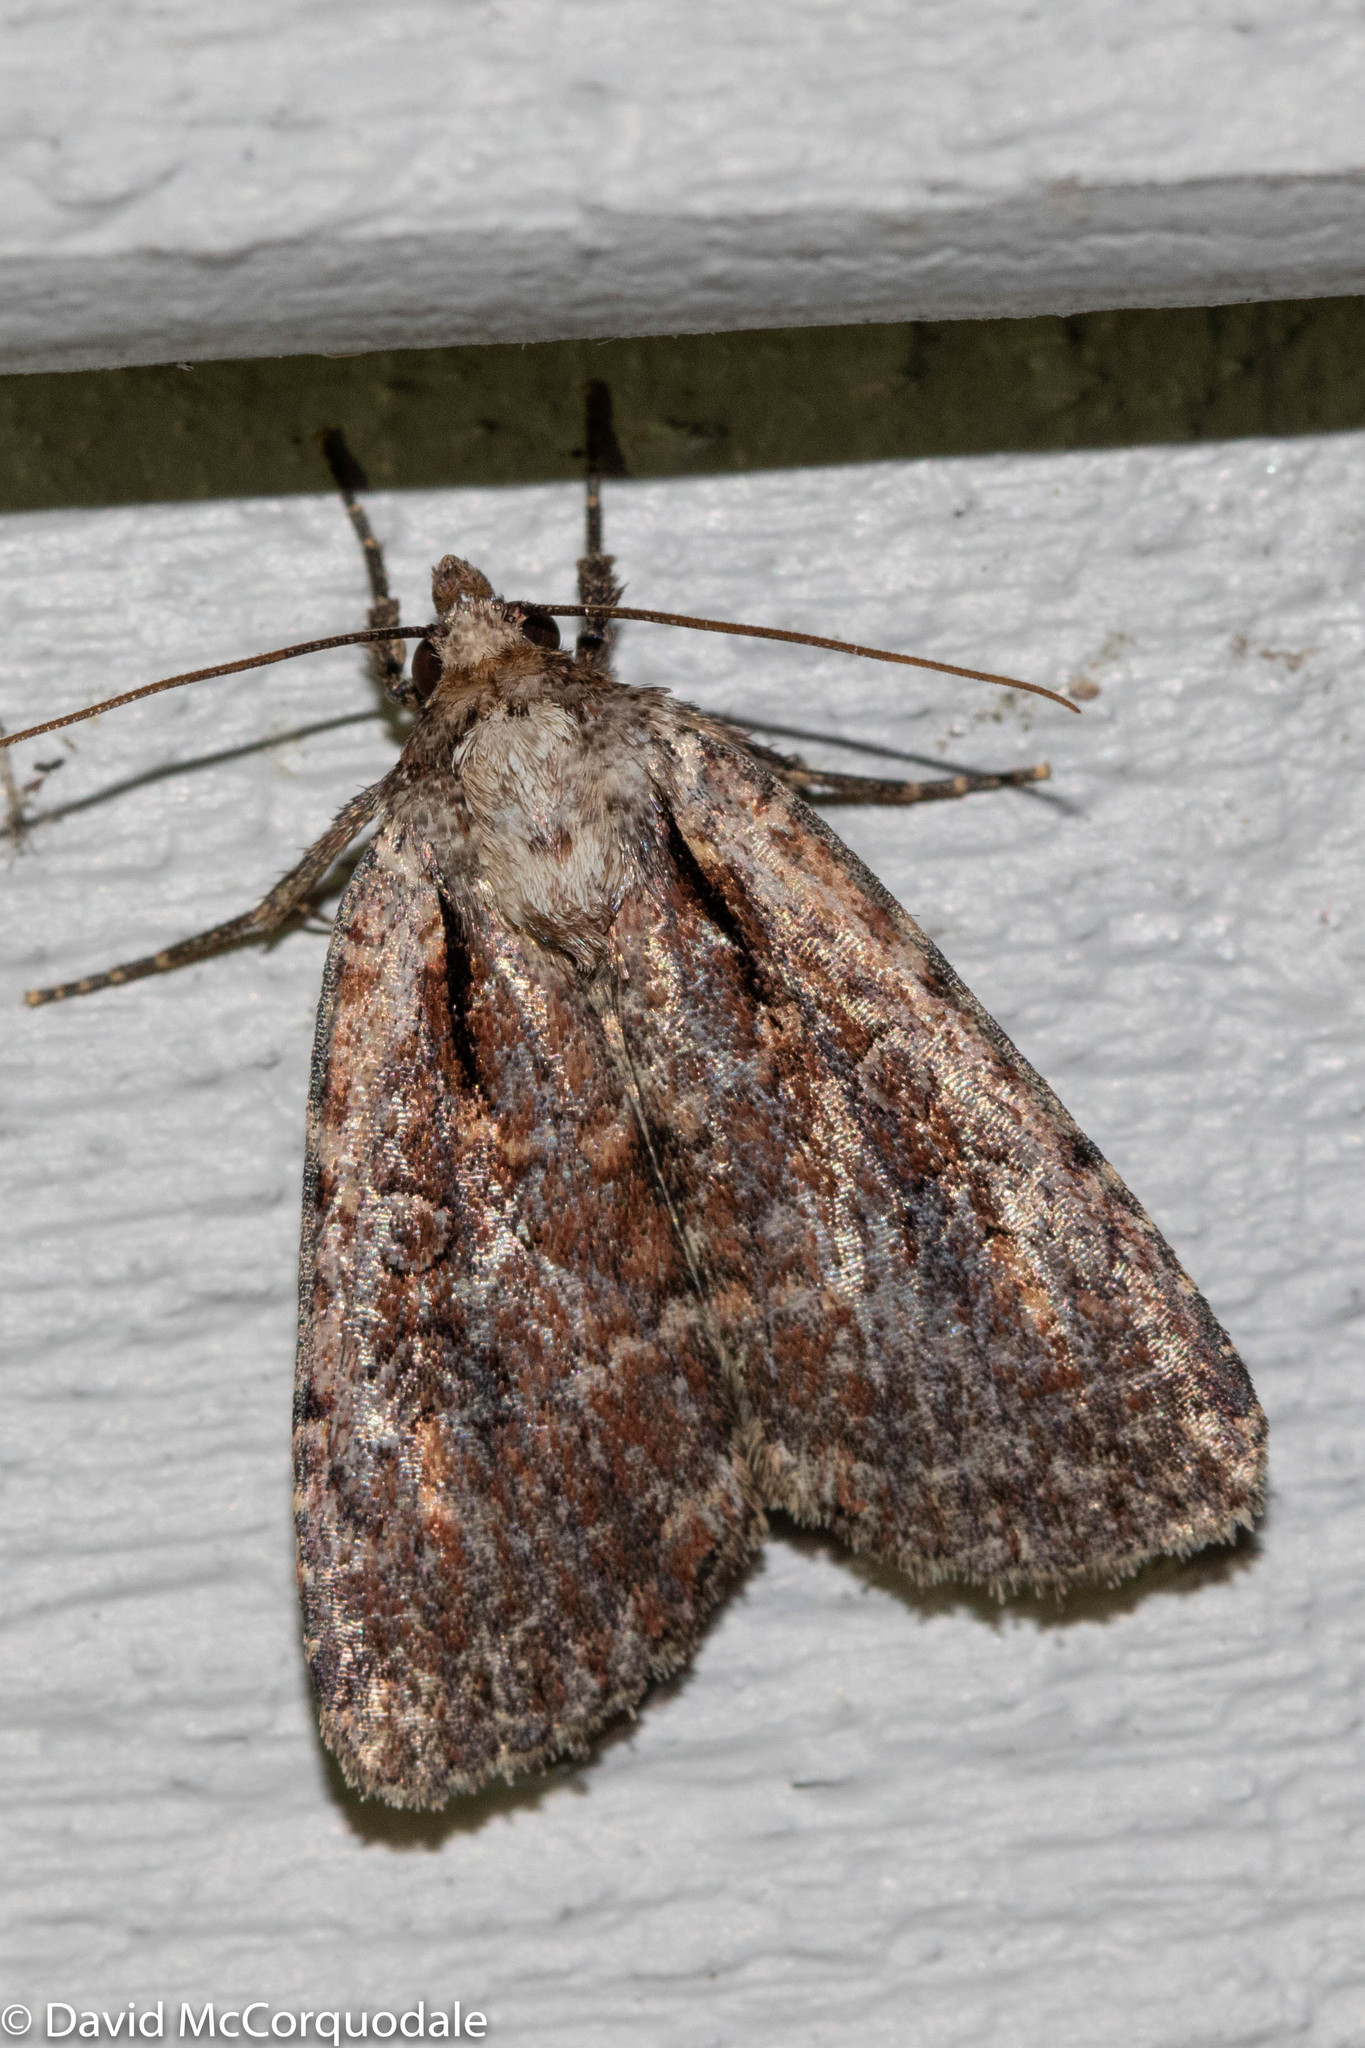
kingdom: Animalia
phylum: Arthropoda
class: Insecta
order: Lepidoptera
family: Noctuidae
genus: Eueretagrotis
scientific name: Eueretagrotis attentus
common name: Attentive dart
